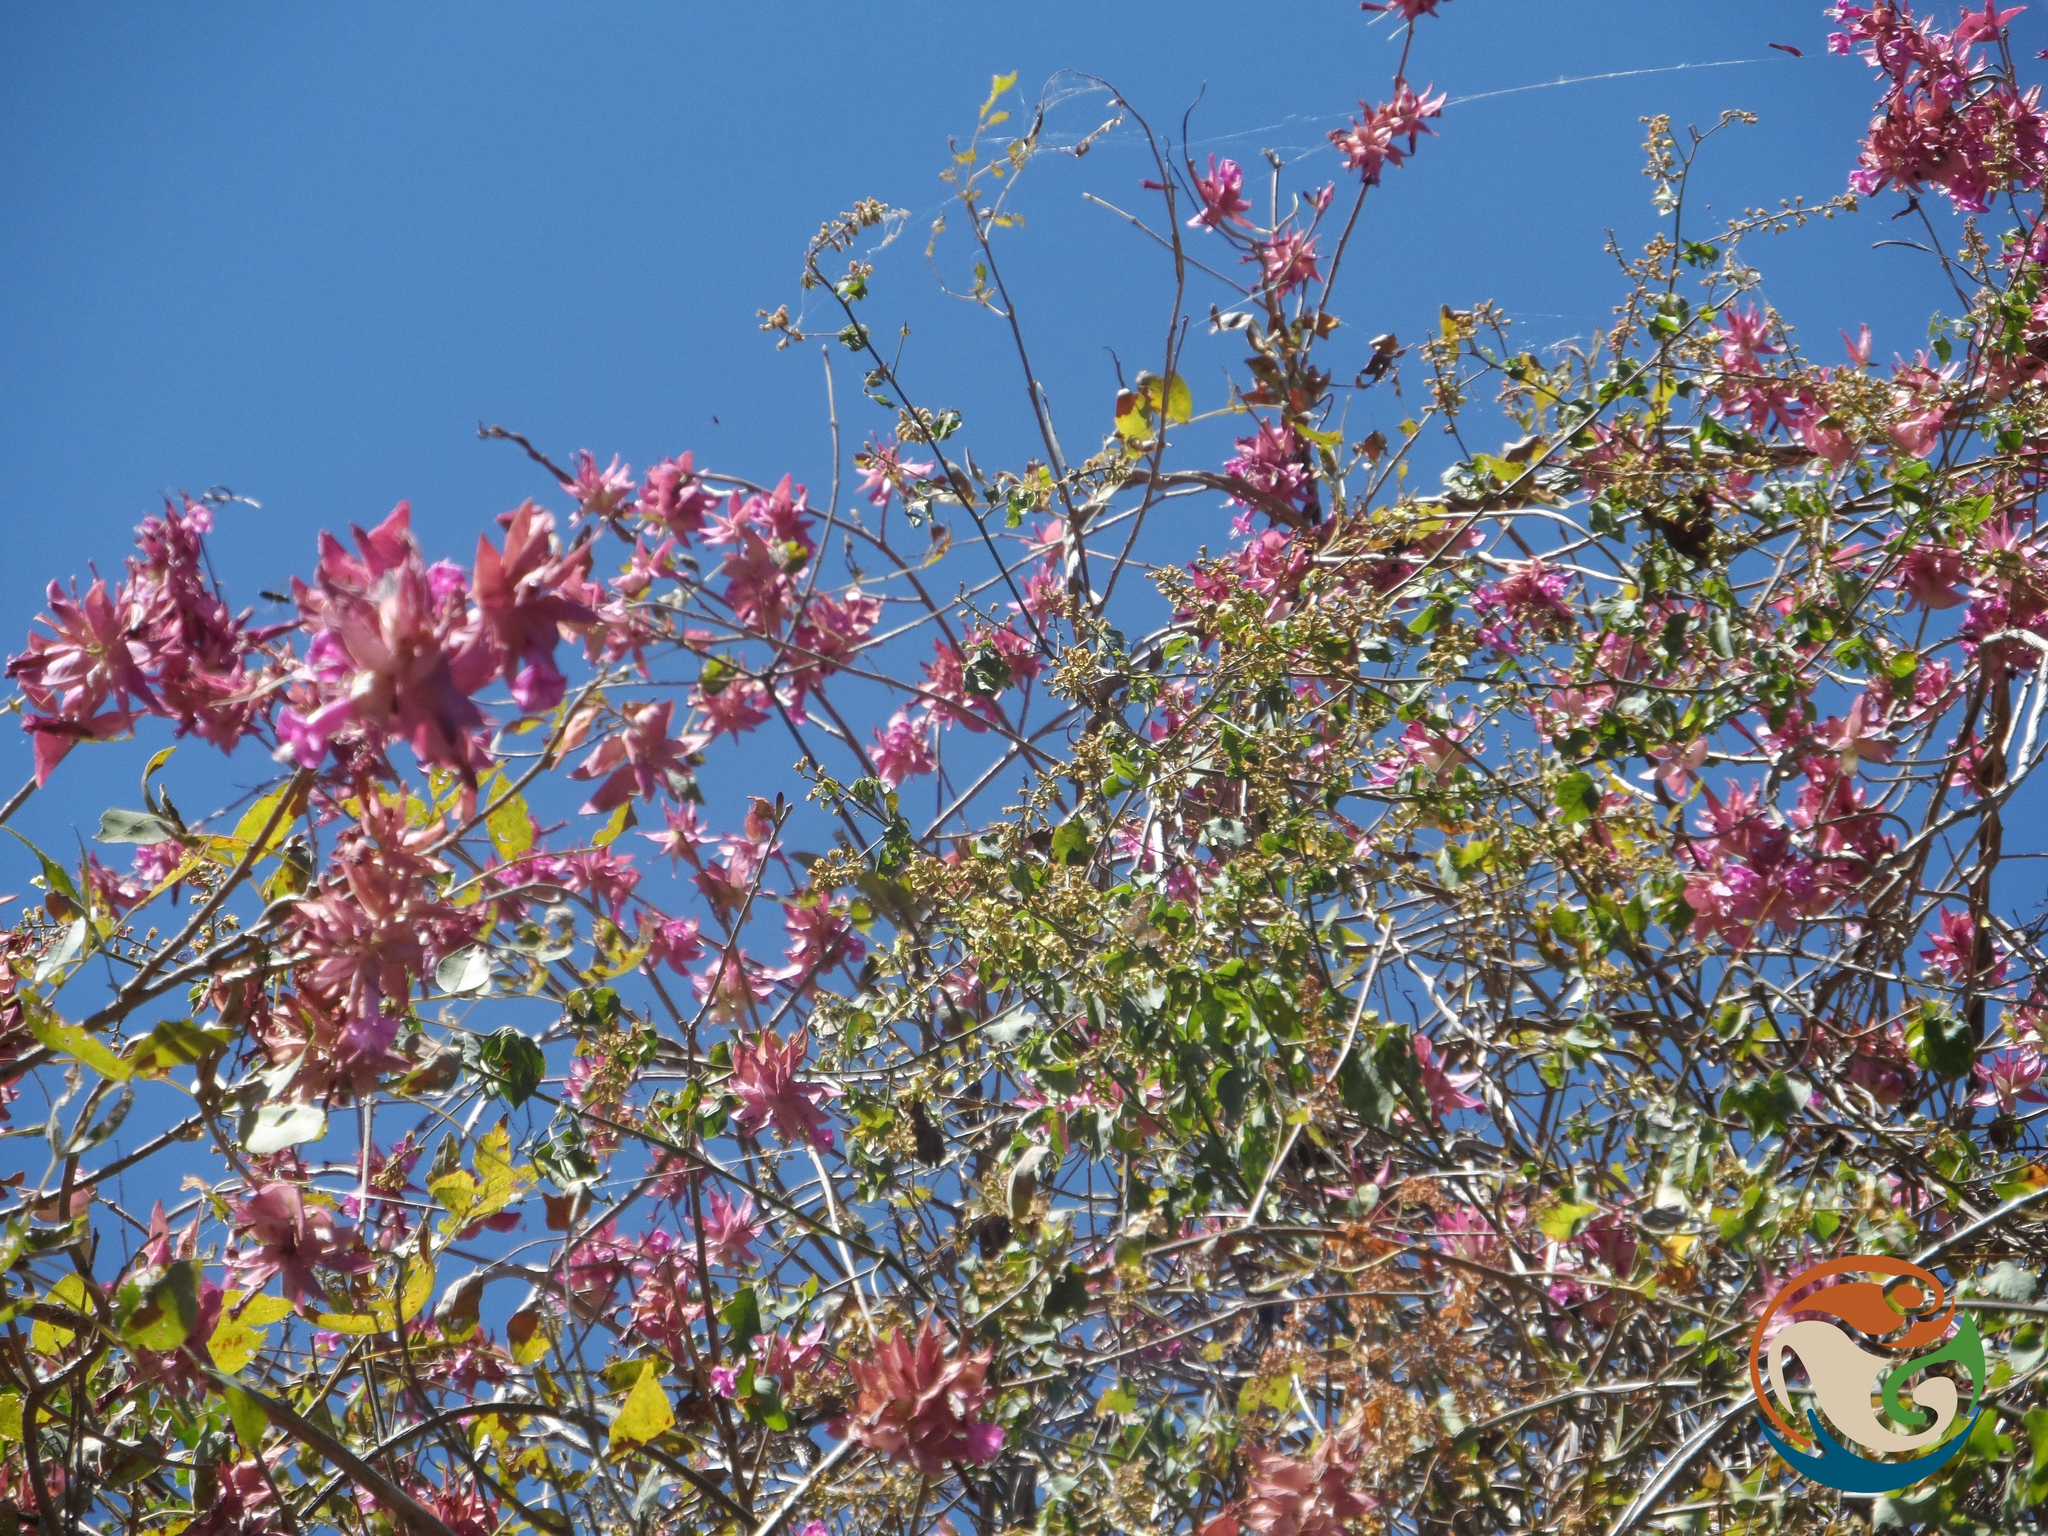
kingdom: Plantae
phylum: Tracheophyta
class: Magnoliopsida
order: Solanales
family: Convolvulaceae
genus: Ipomoea
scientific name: Ipomoea bracteata
